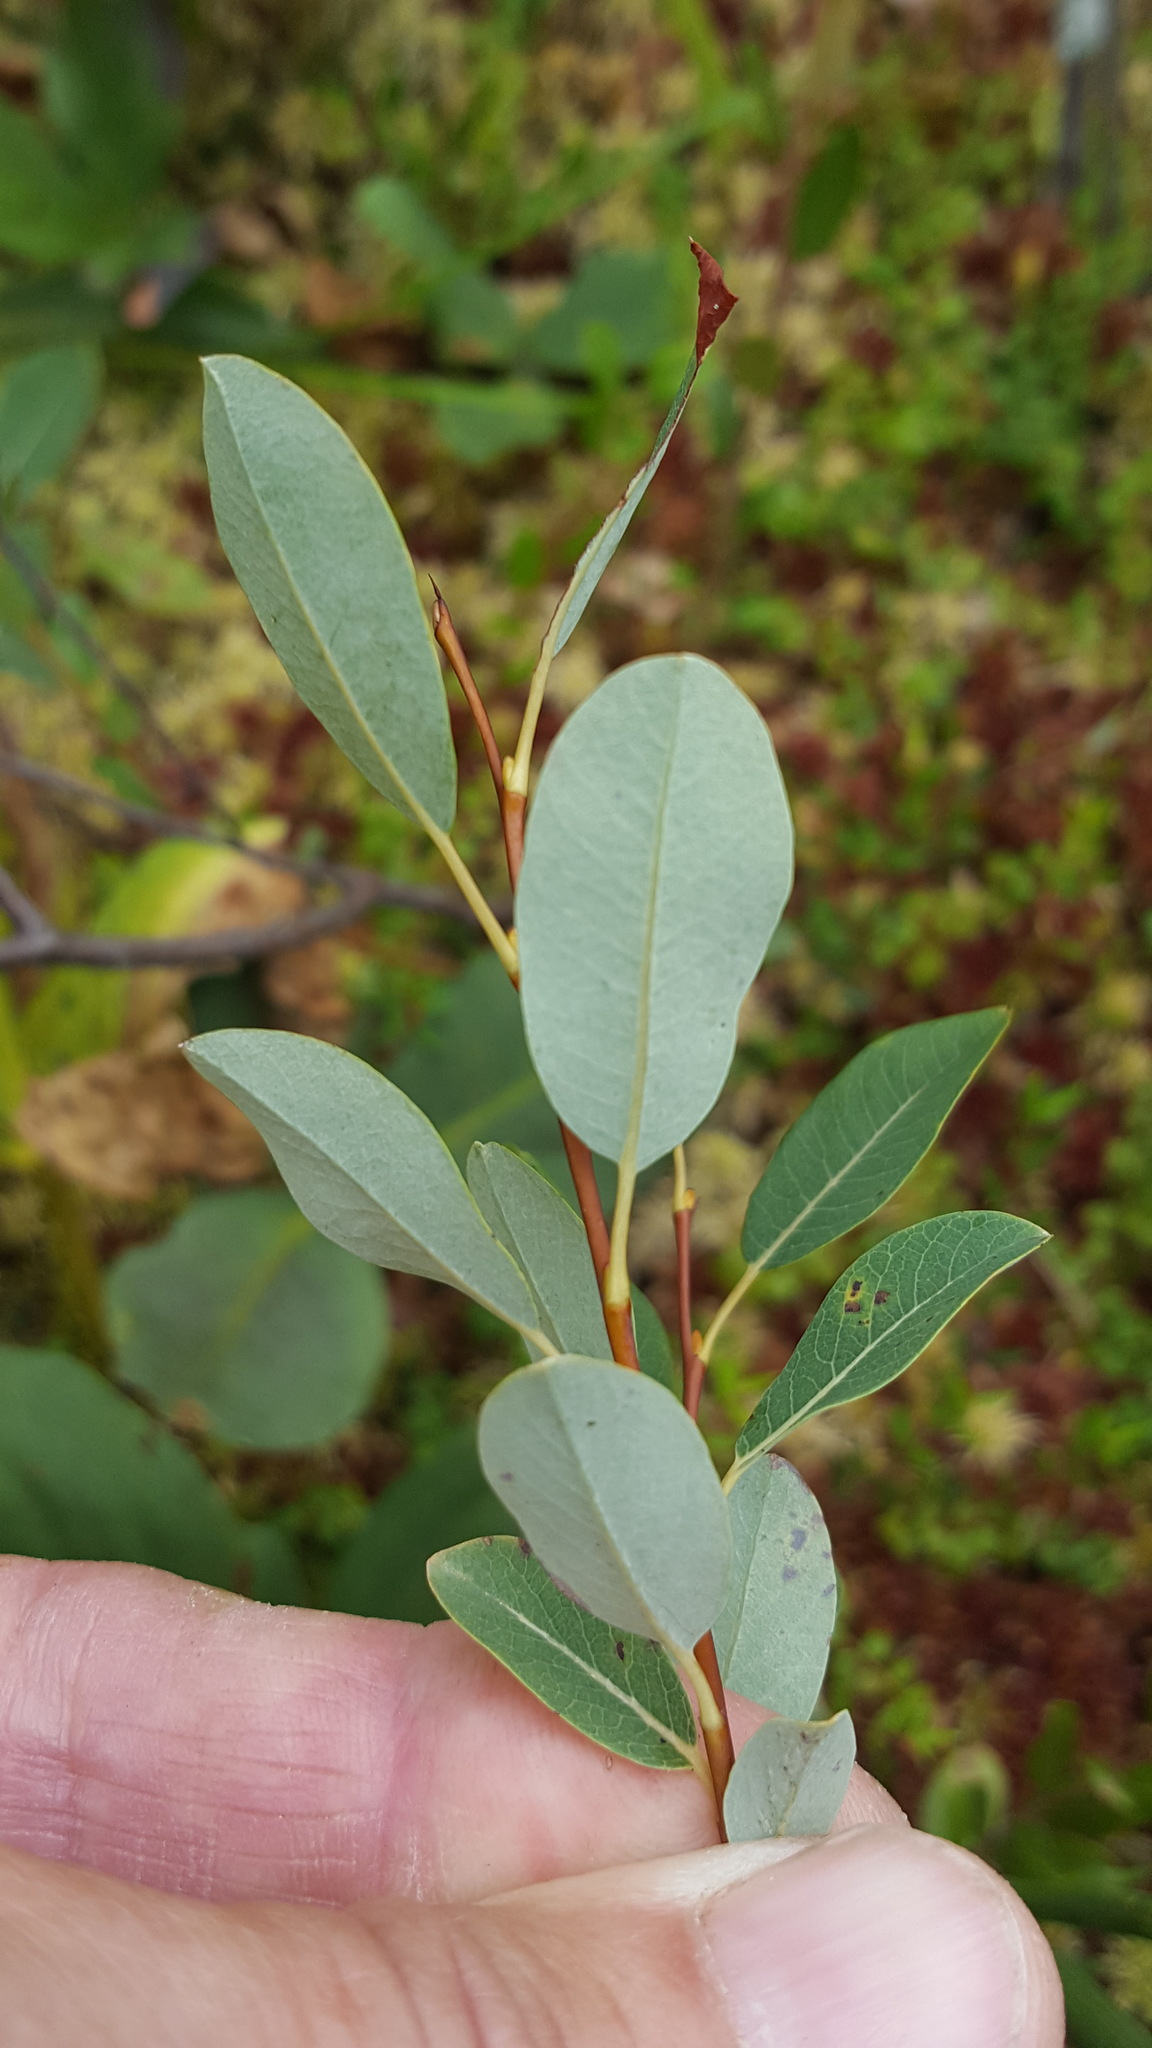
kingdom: Plantae
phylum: Tracheophyta
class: Magnoliopsida
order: Malpighiales
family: Salicaceae
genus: Salix
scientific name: Salix pedicellaris
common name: Bog willow
